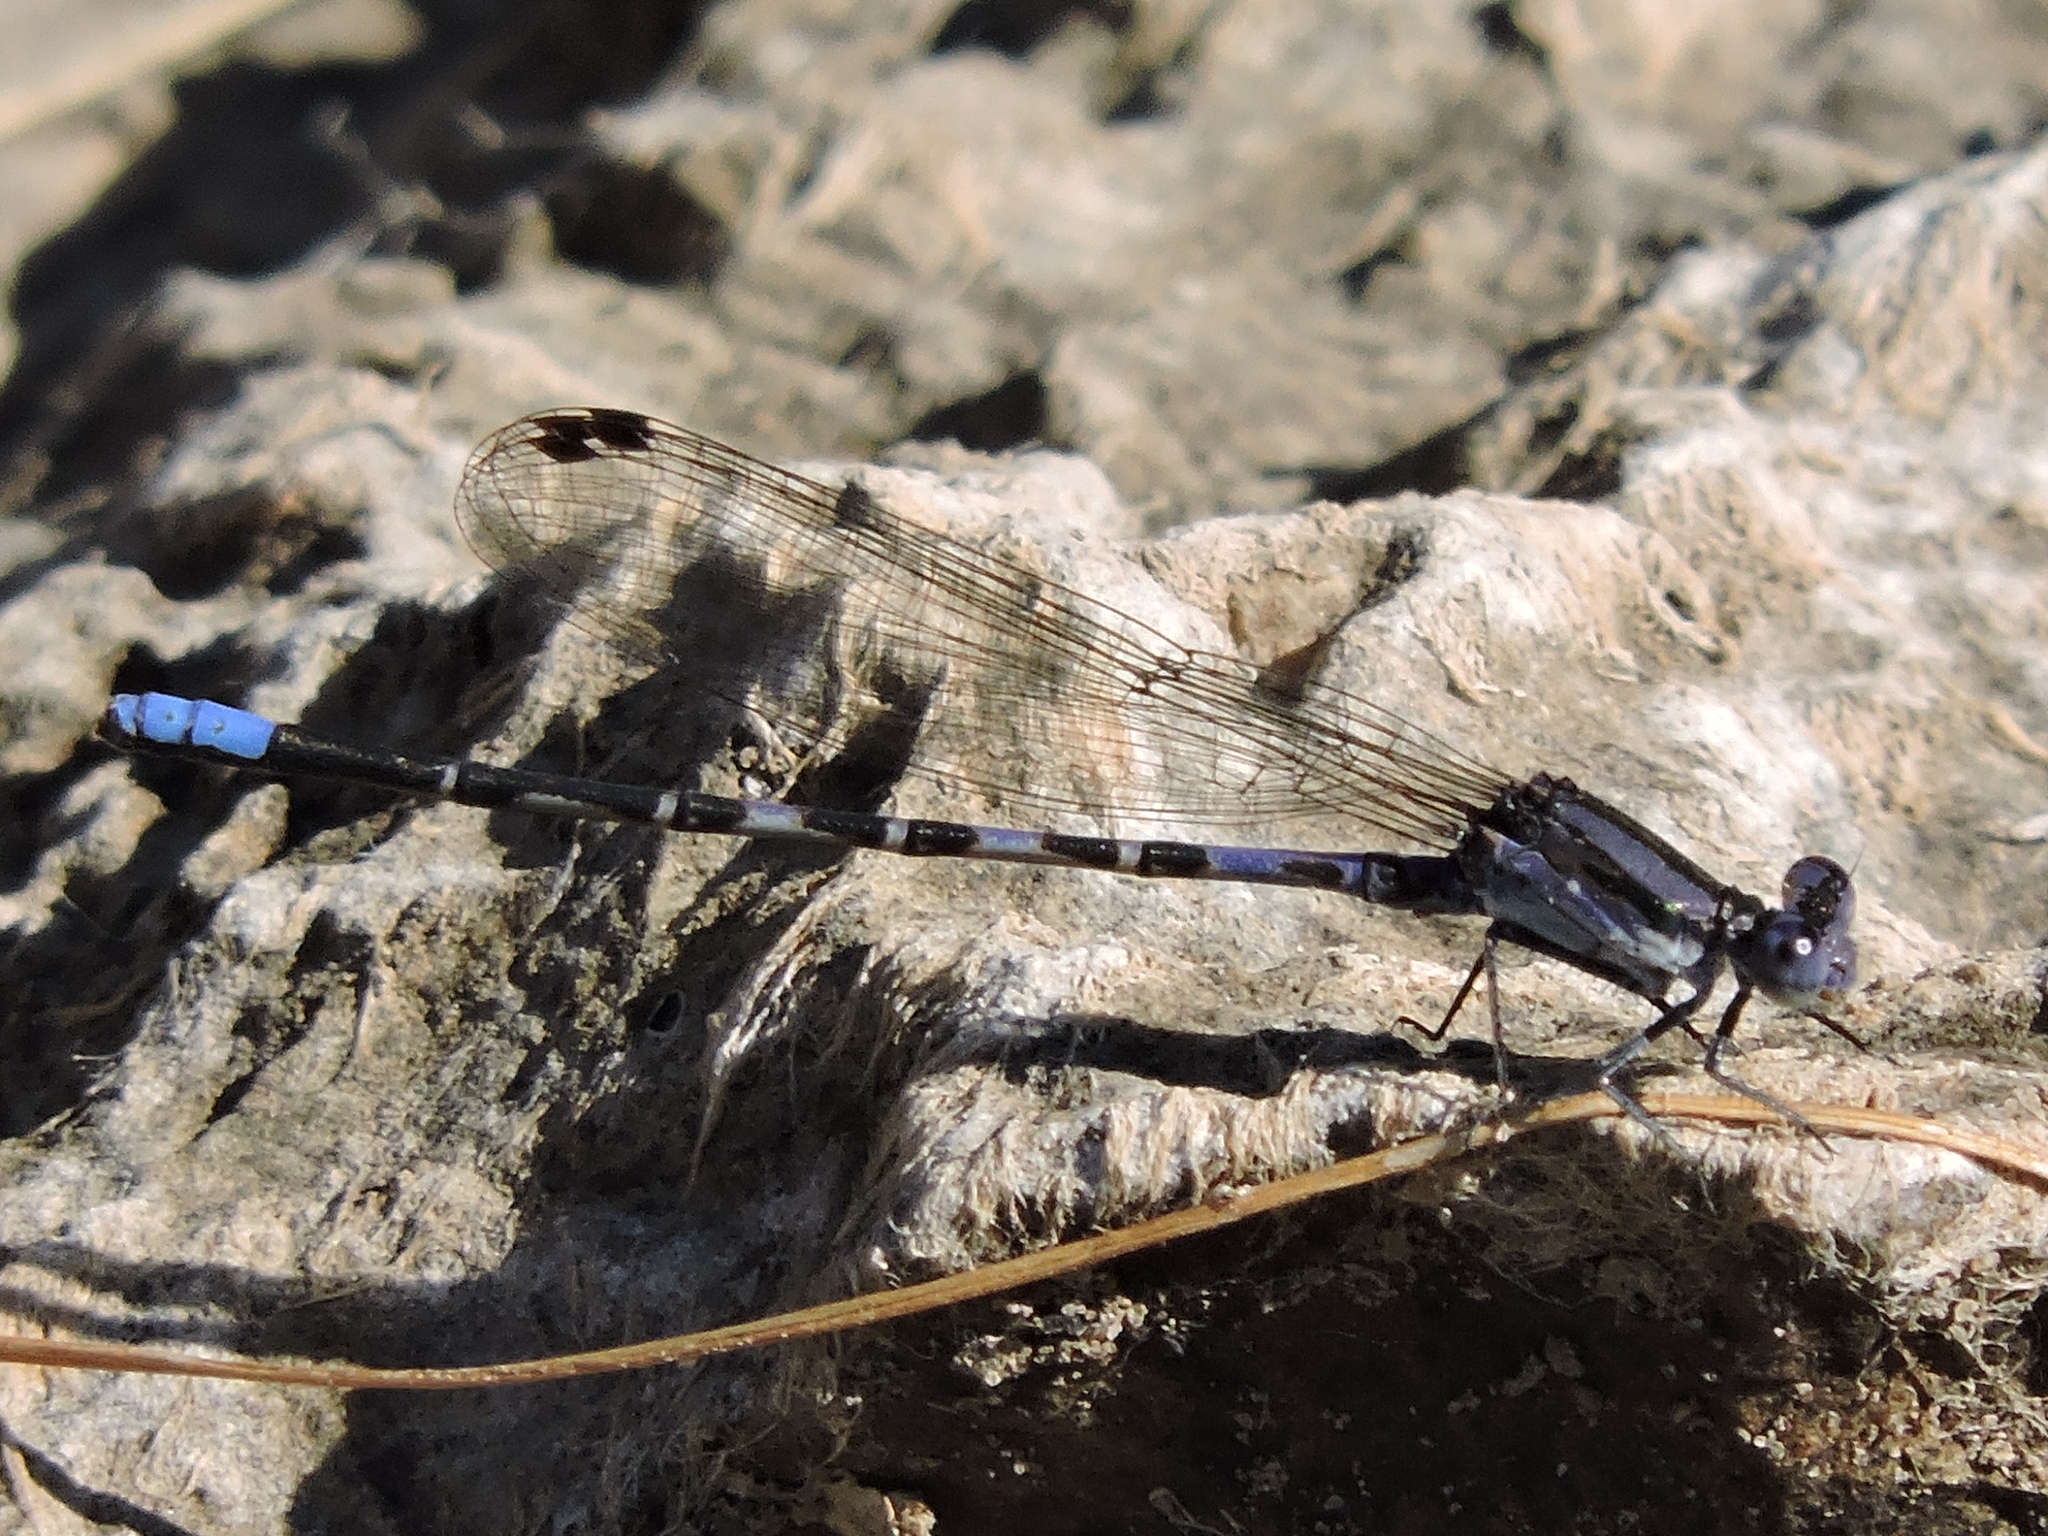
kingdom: Animalia
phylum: Arthropoda
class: Insecta
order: Odonata
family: Coenagrionidae
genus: Argia
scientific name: Argia immunda
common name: Kiowa dancer
